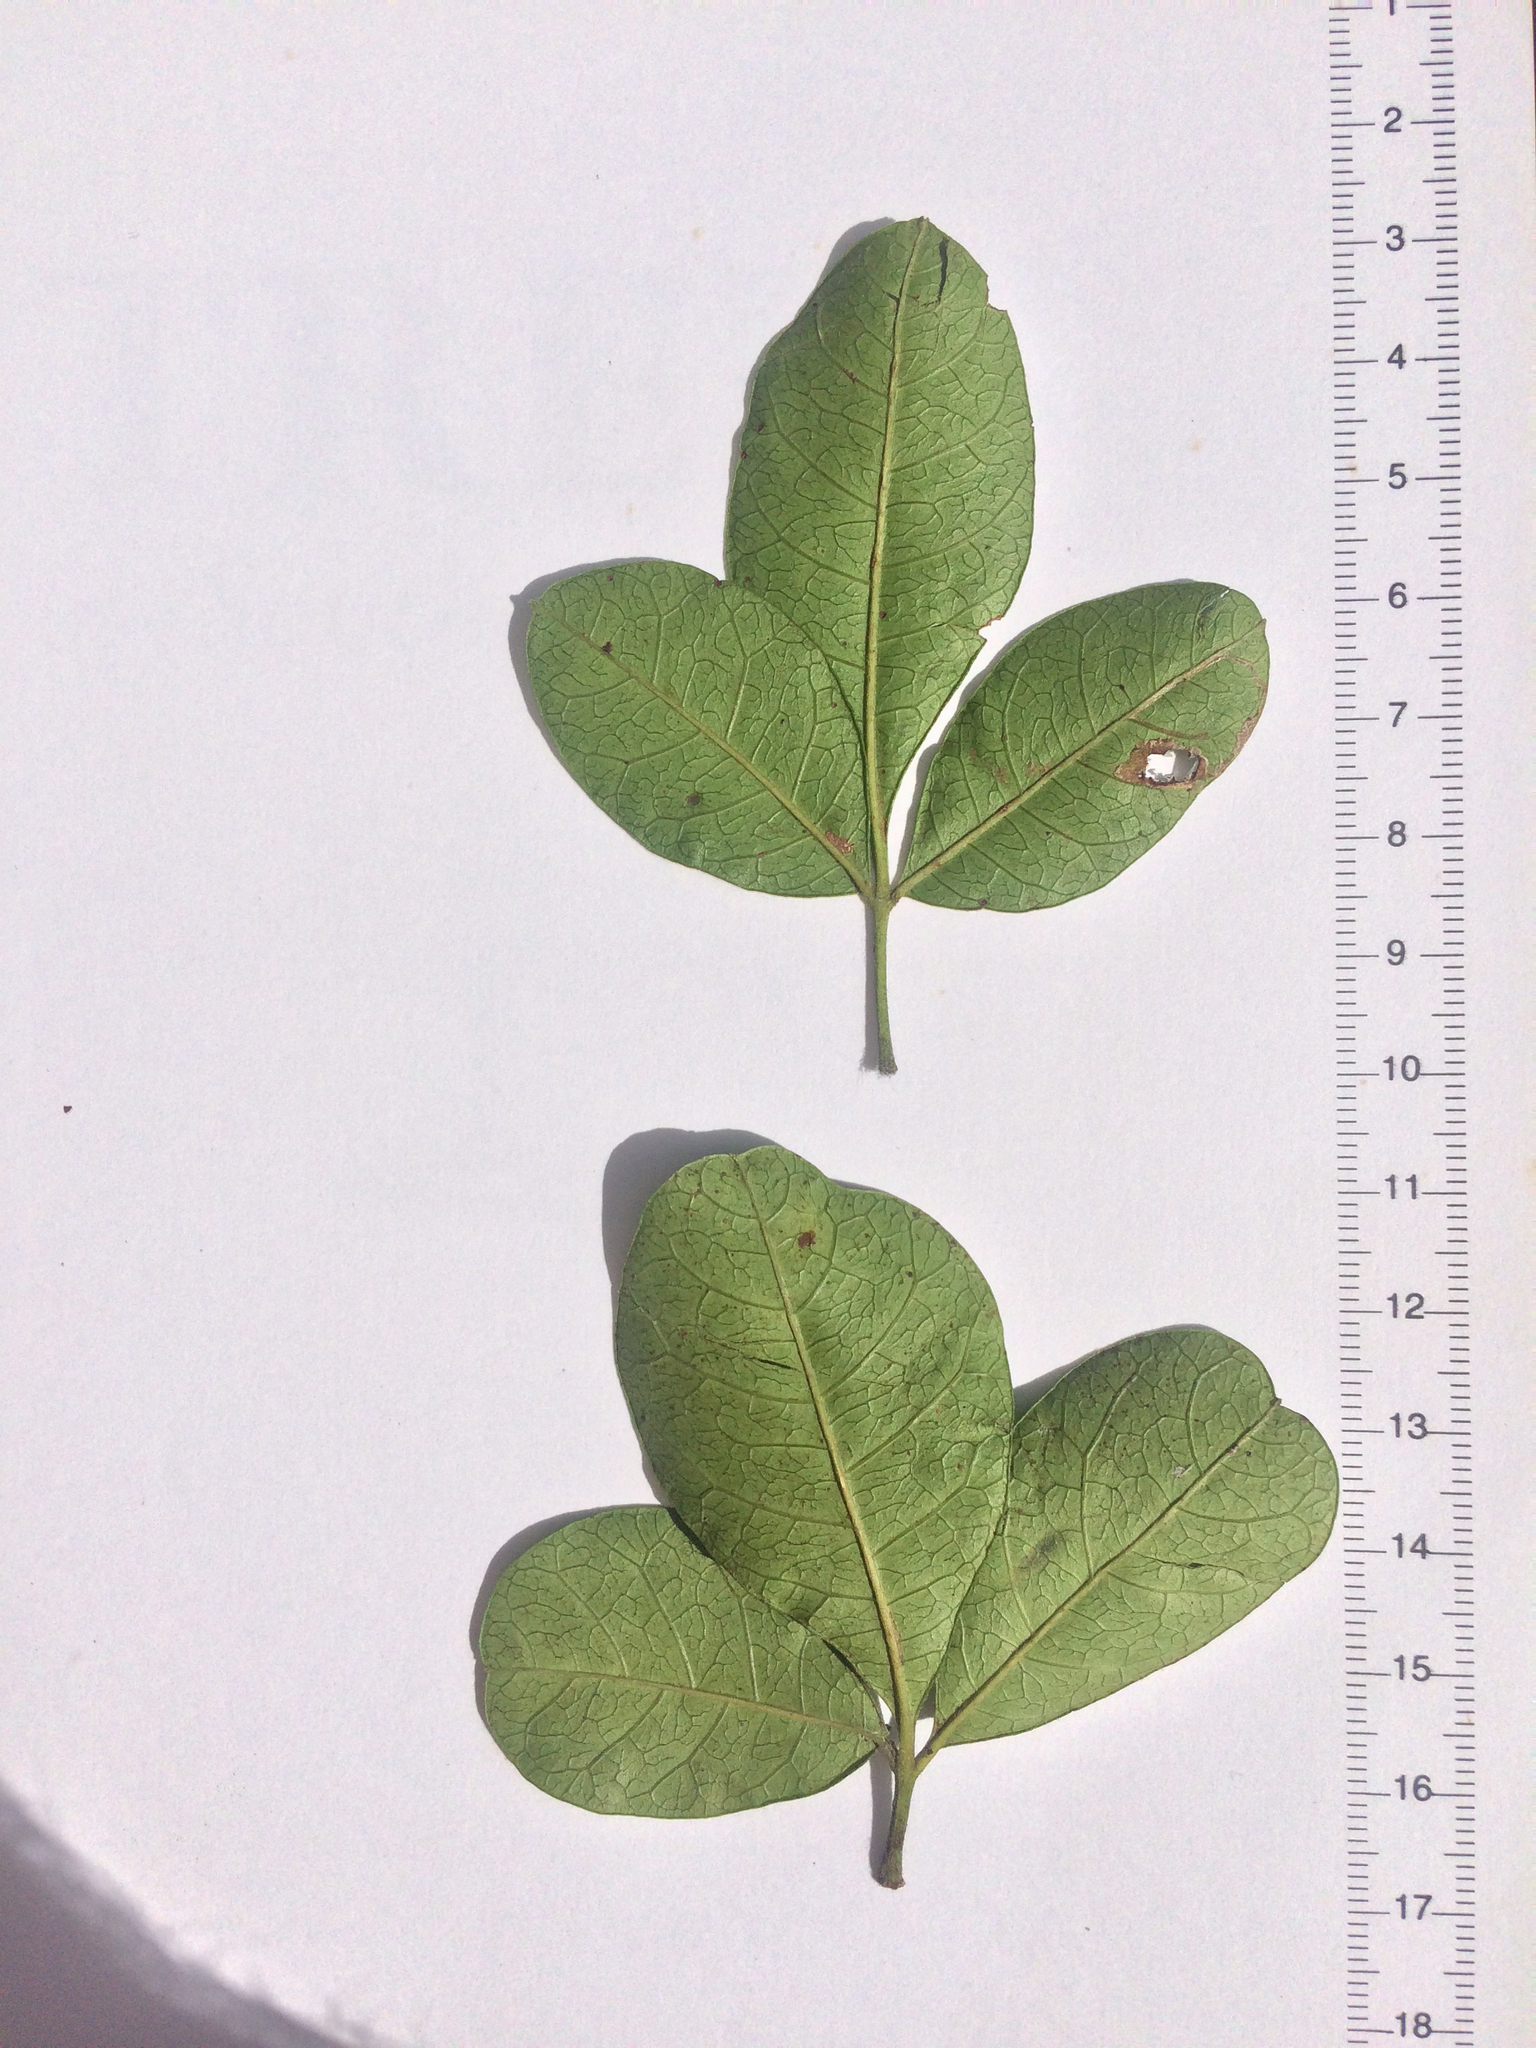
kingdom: Plantae
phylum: Tracheophyta
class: Magnoliopsida
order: Sapindales
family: Anacardiaceae
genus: Searsia
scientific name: Searsia nebulosa
